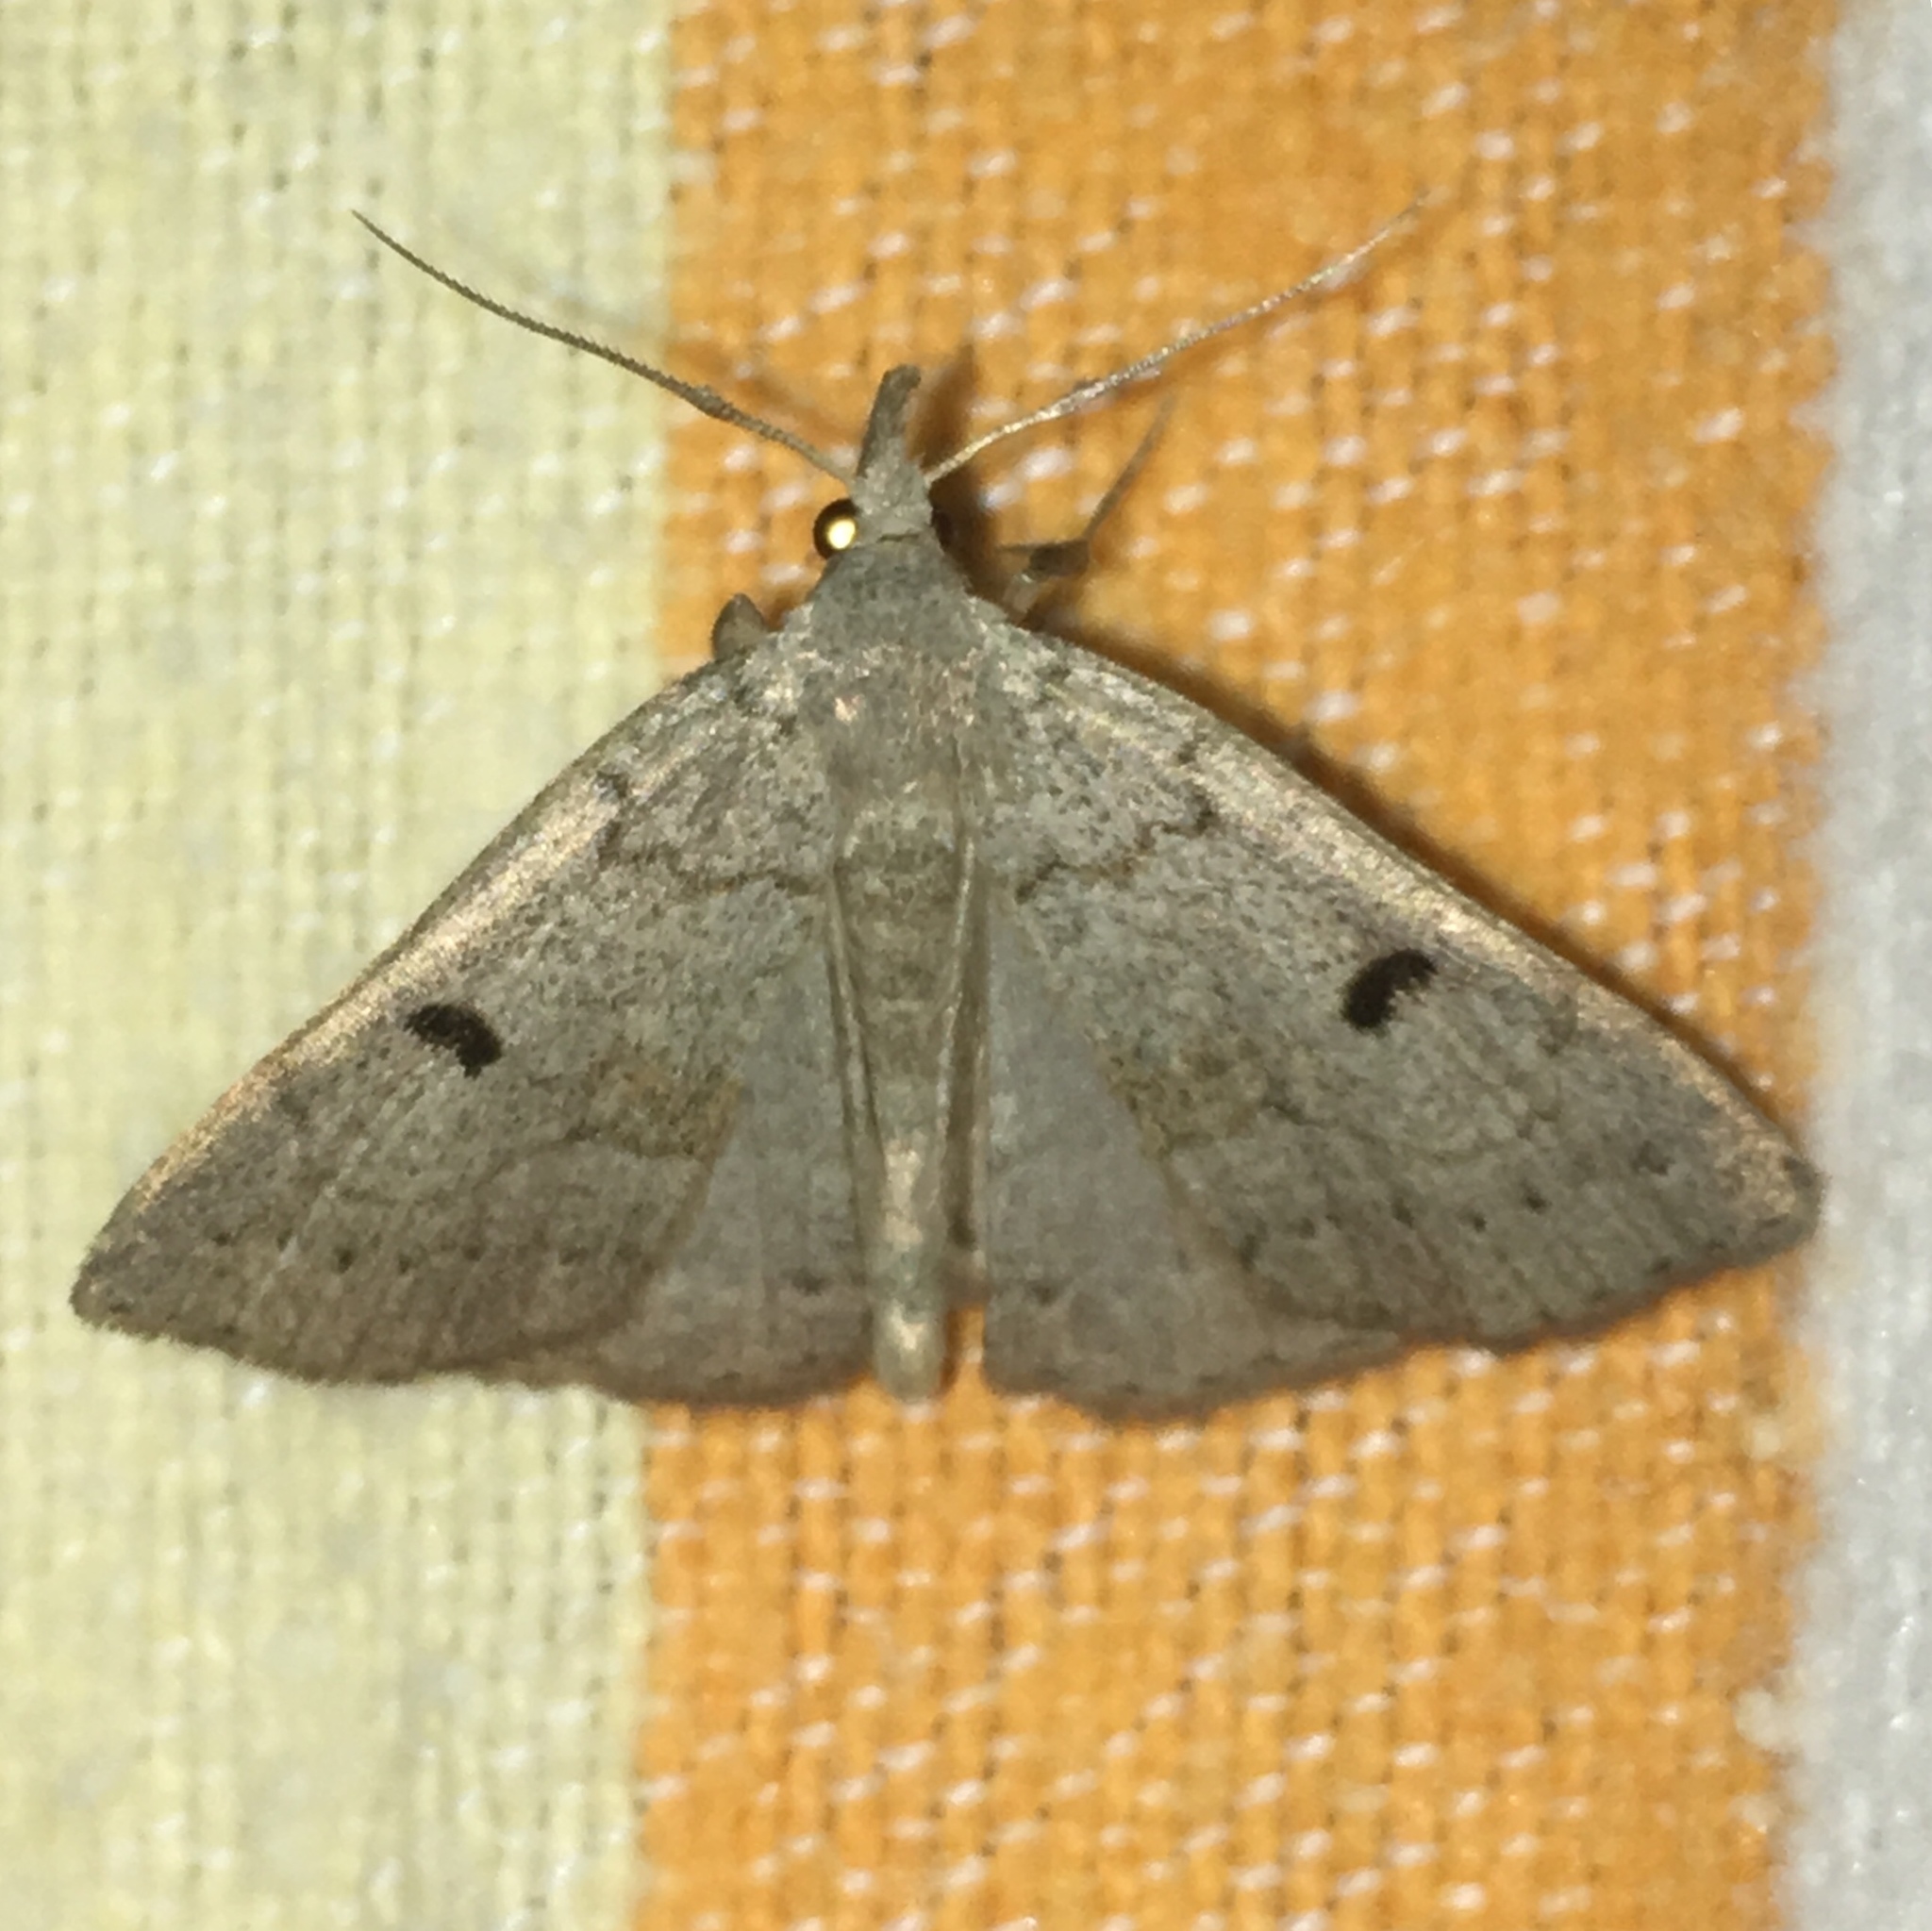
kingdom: Animalia
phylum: Arthropoda
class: Insecta
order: Lepidoptera
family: Erebidae
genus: Macrochilo
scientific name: Macrochilo morbidalis
